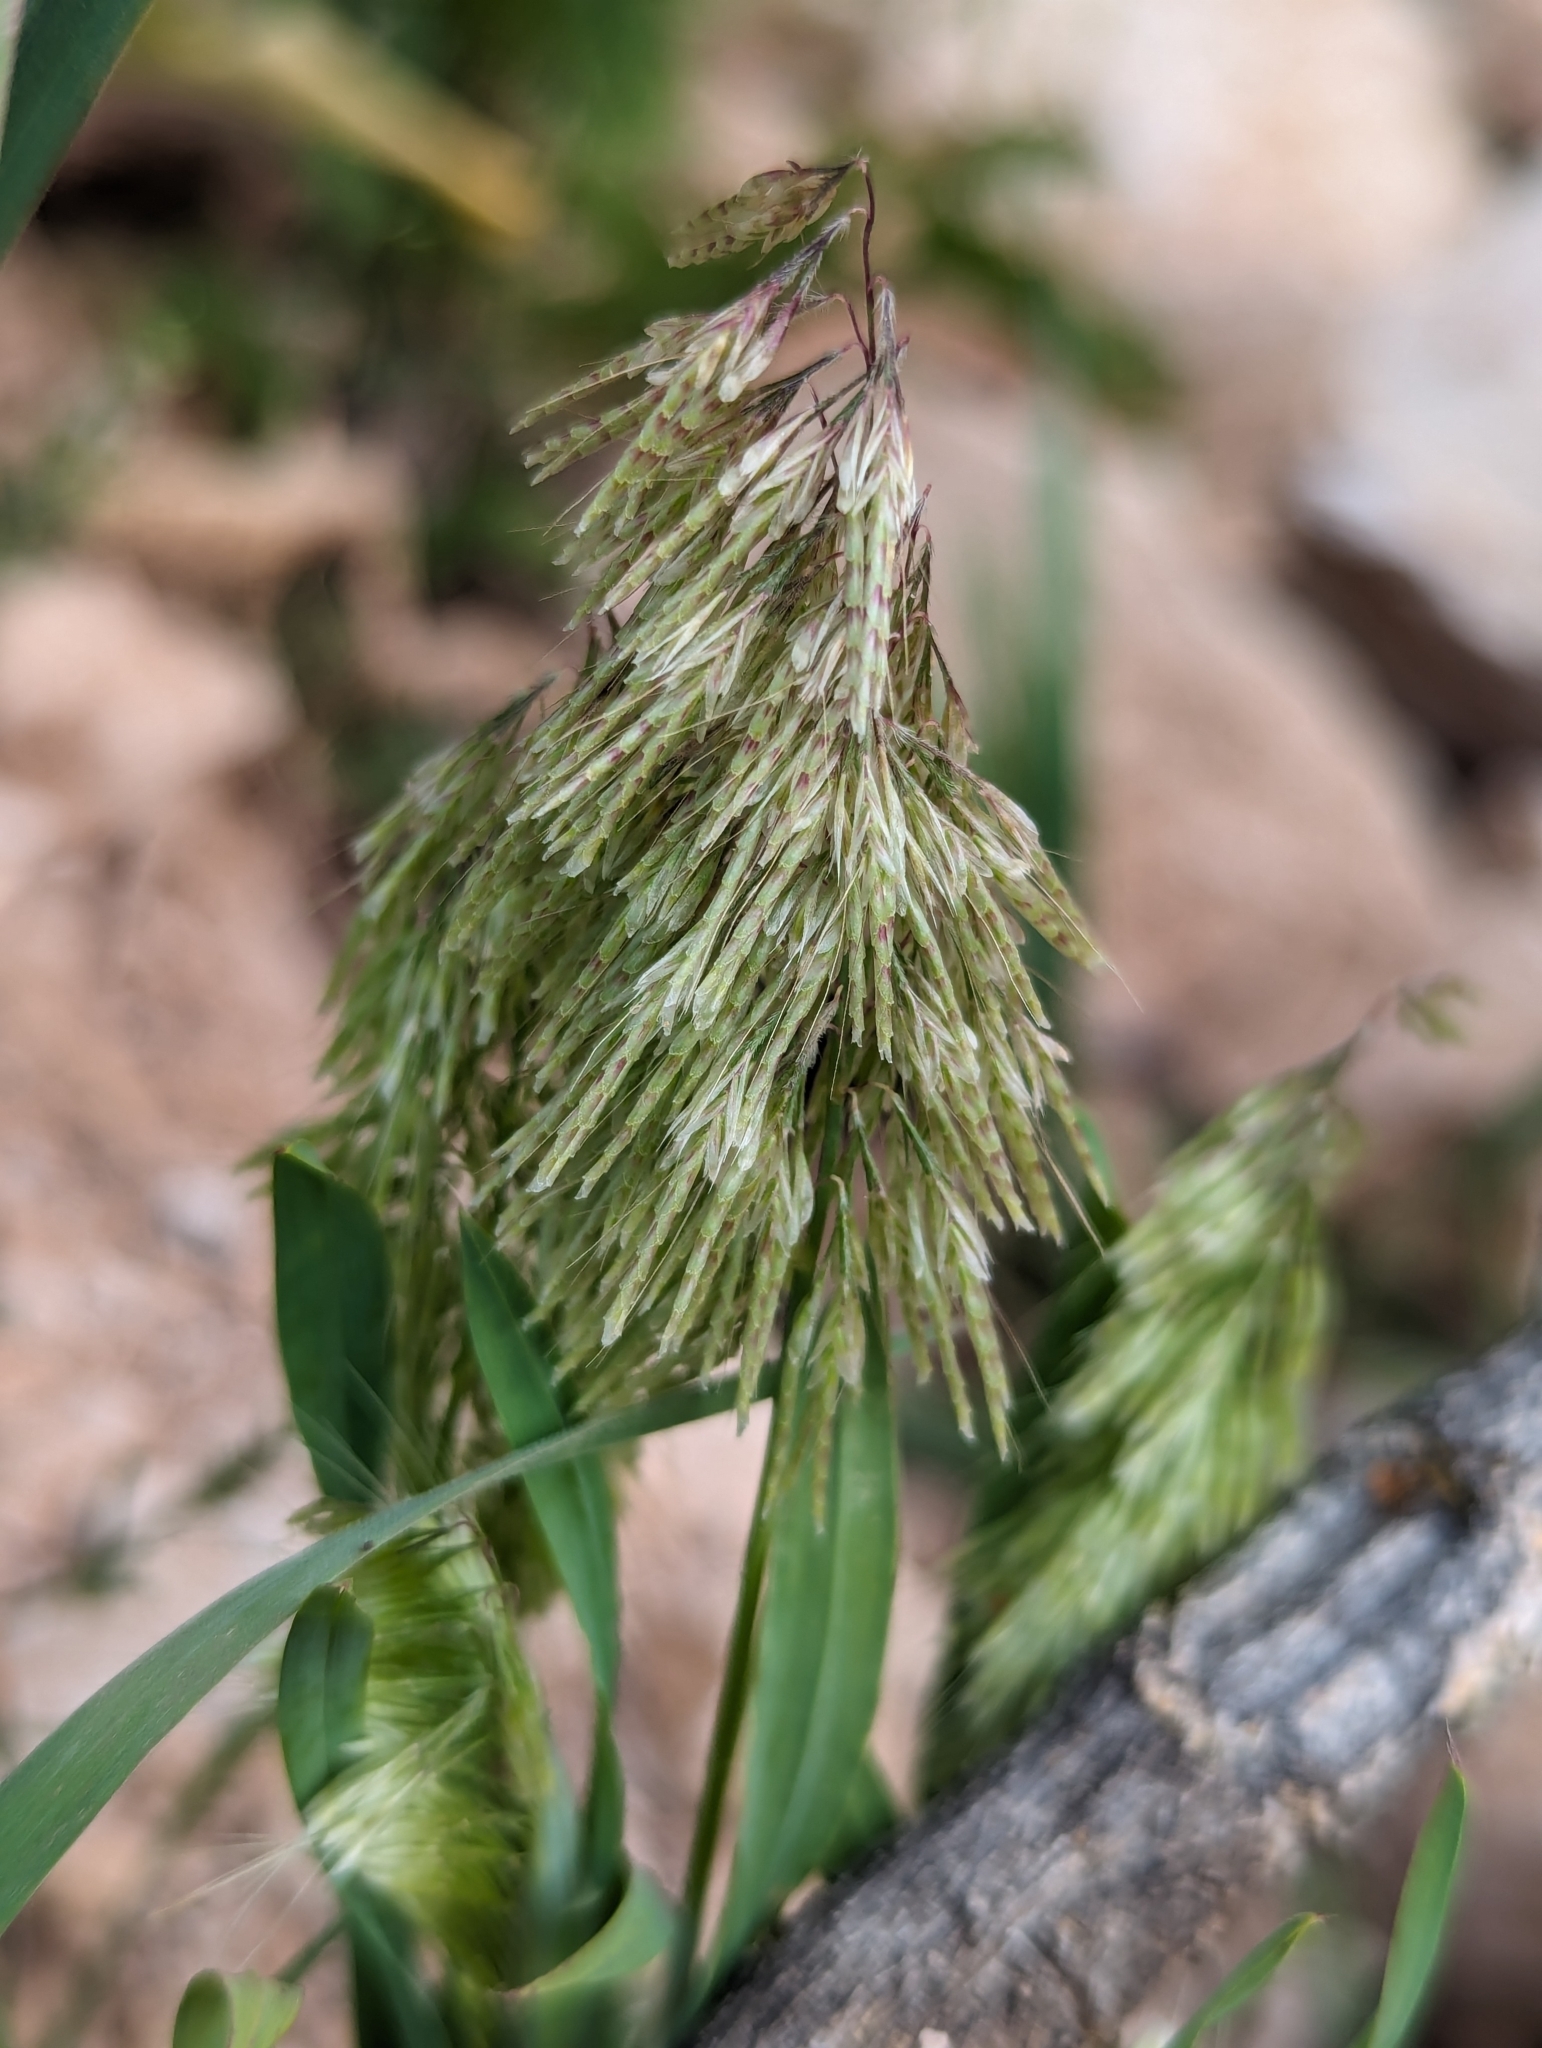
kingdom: Plantae
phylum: Tracheophyta
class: Liliopsida
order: Poales
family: Poaceae
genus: Lamarckia
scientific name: Lamarckia aurea
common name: Golden dog's-tail
